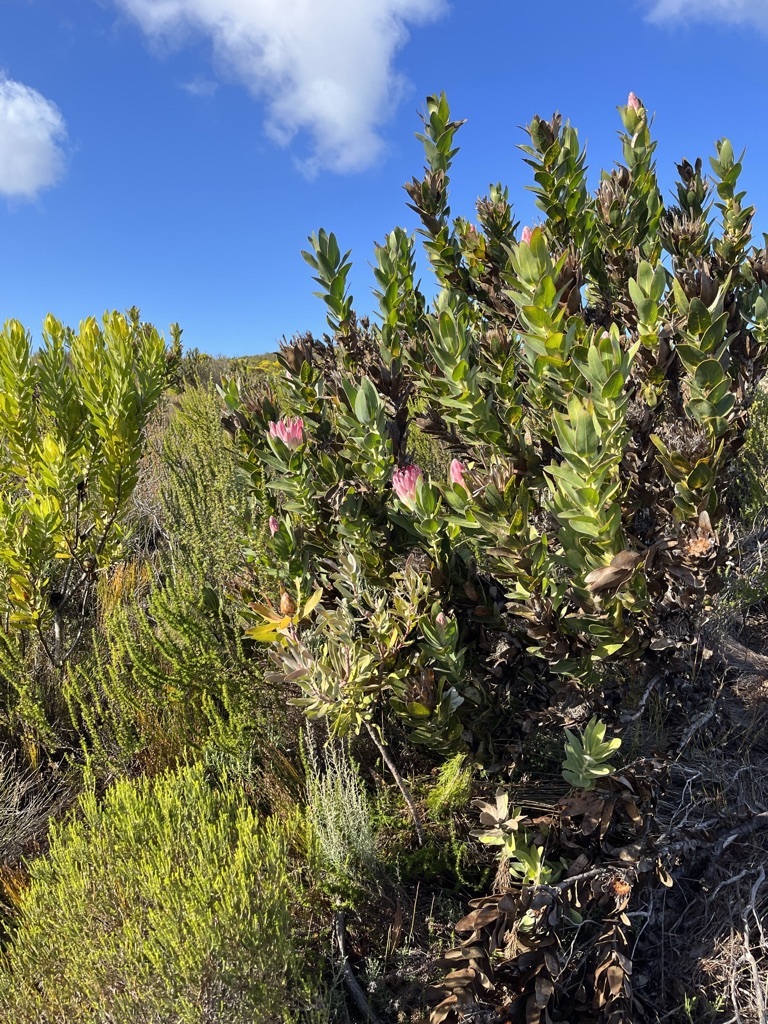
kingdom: Plantae
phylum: Tracheophyta
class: Magnoliopsida
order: Proteales
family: Proteaceae
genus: Protea
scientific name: Protea compacta
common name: Bot river protea
